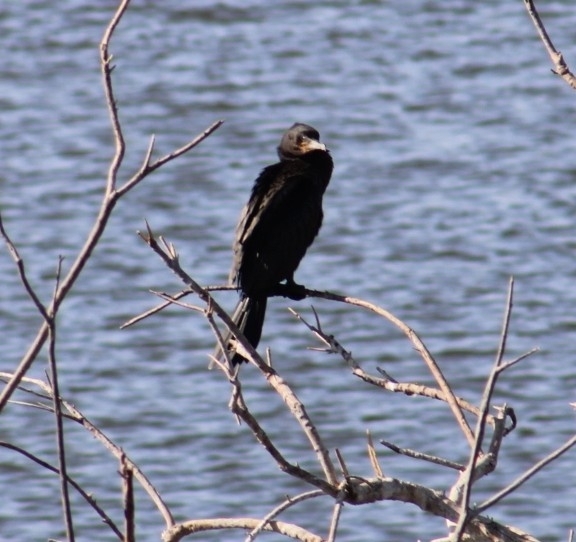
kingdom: Animalia
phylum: Chordata
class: Aves
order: Suliformes
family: Phalacrocoracidae
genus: Phalacrocorax
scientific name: Phalacrocorax auritus
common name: Double-crested cormorant
